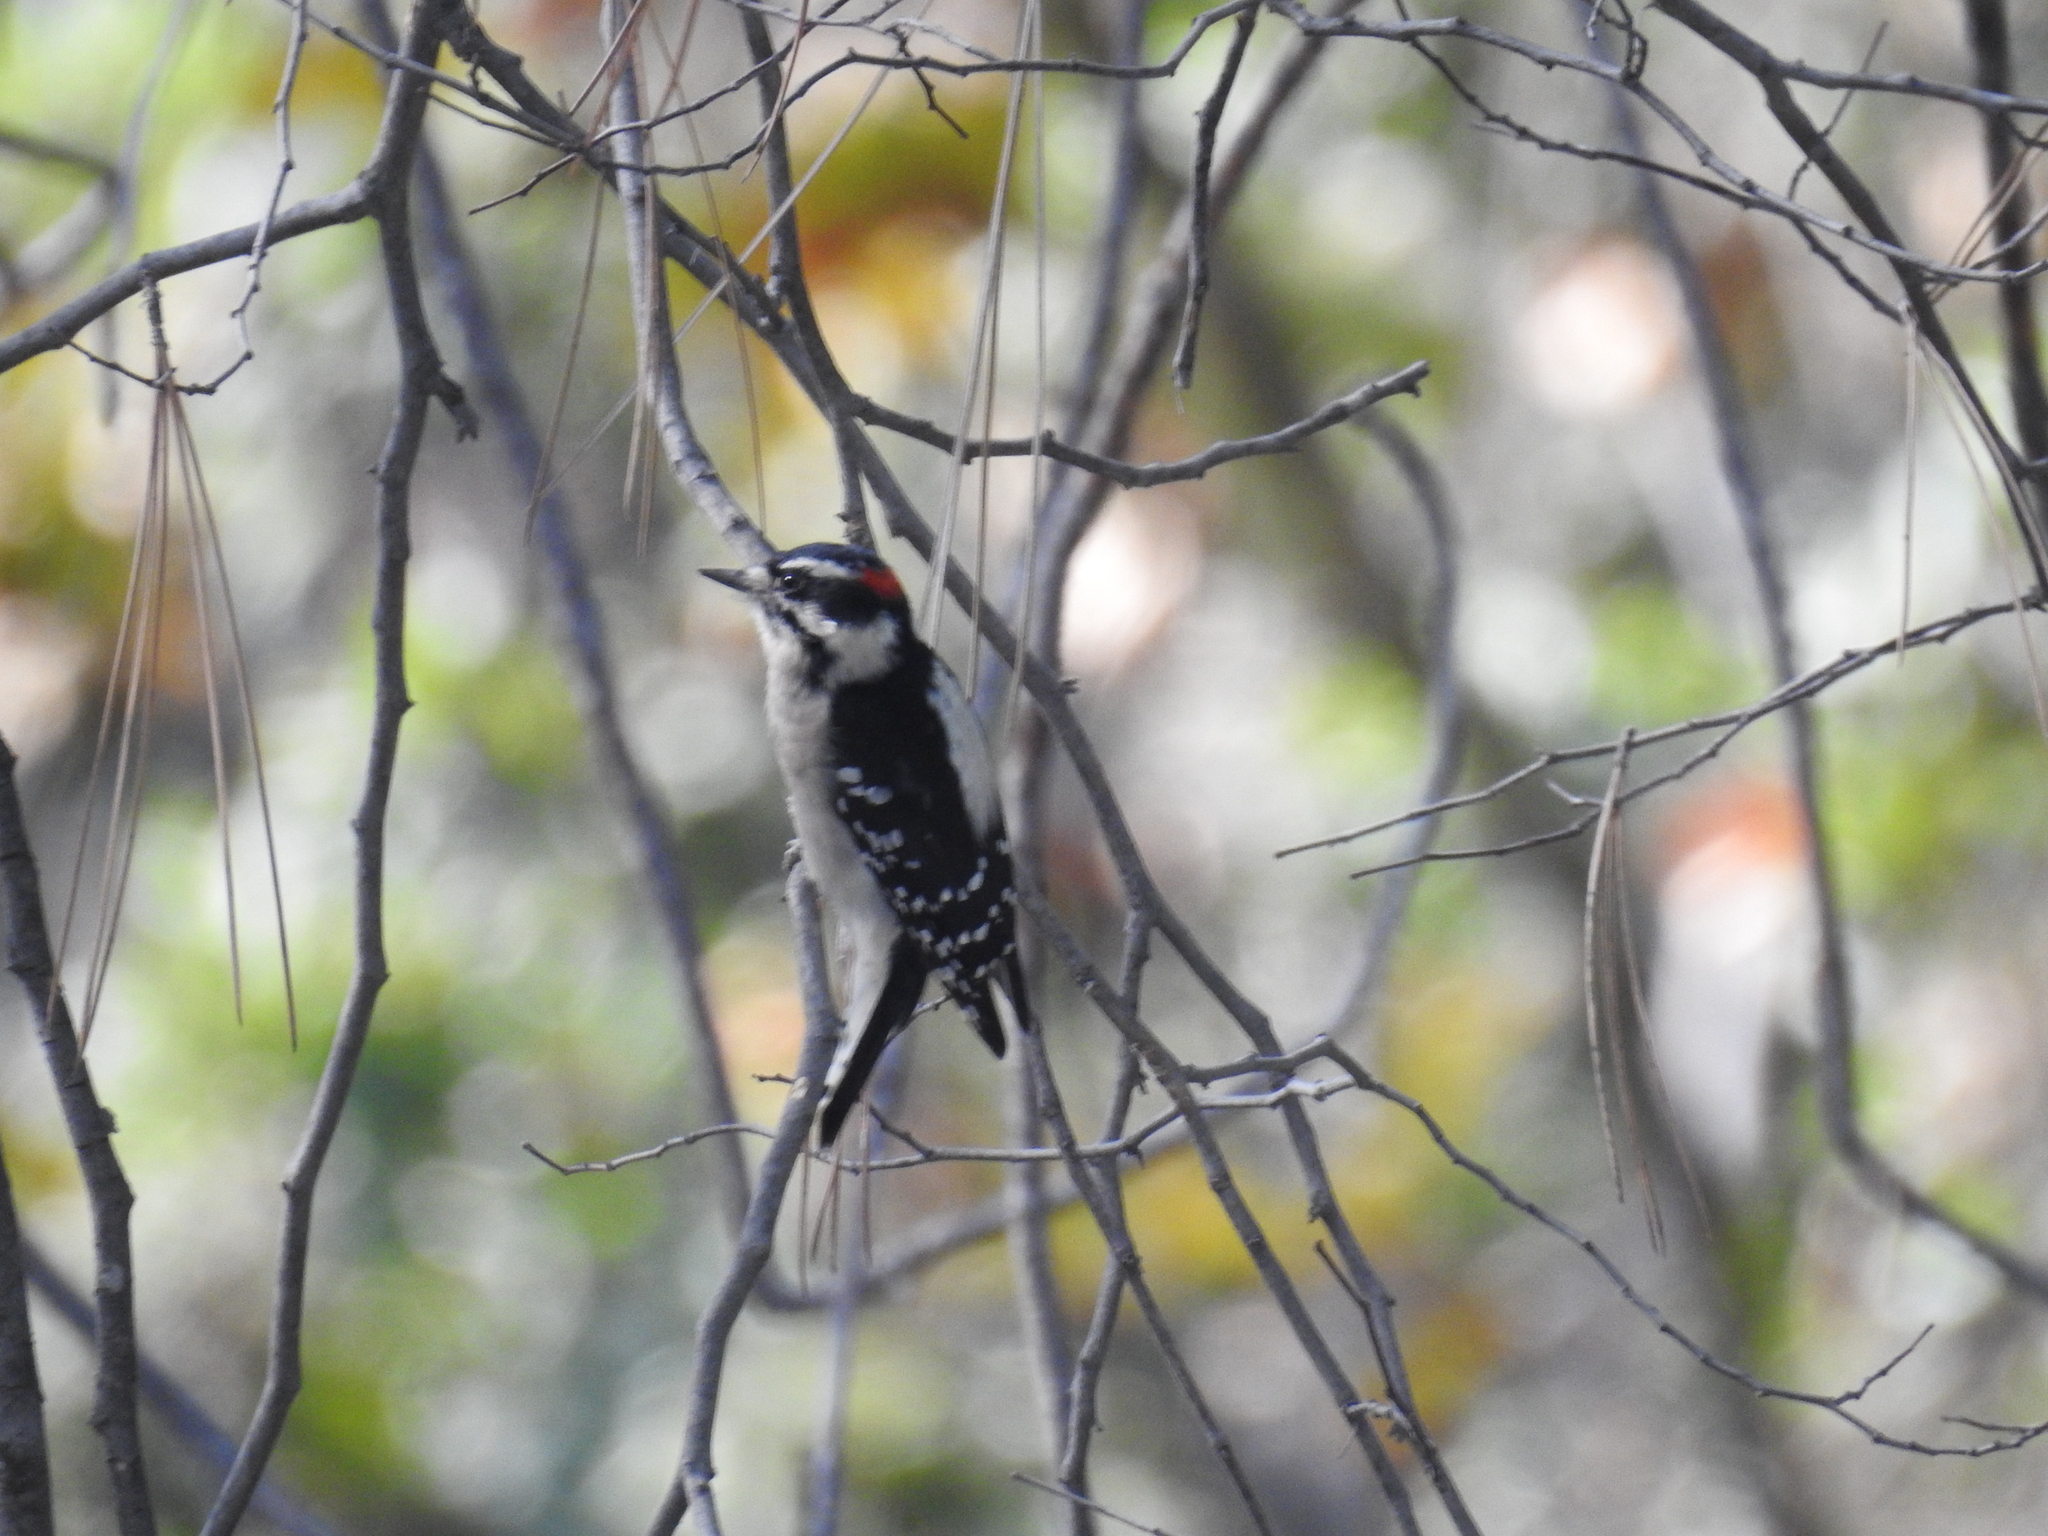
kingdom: Animalia
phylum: Chordata
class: Aves
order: Piciformes
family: Picidae
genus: Dryobates
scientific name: Dryobates pubescens
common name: Downy woodpecker
